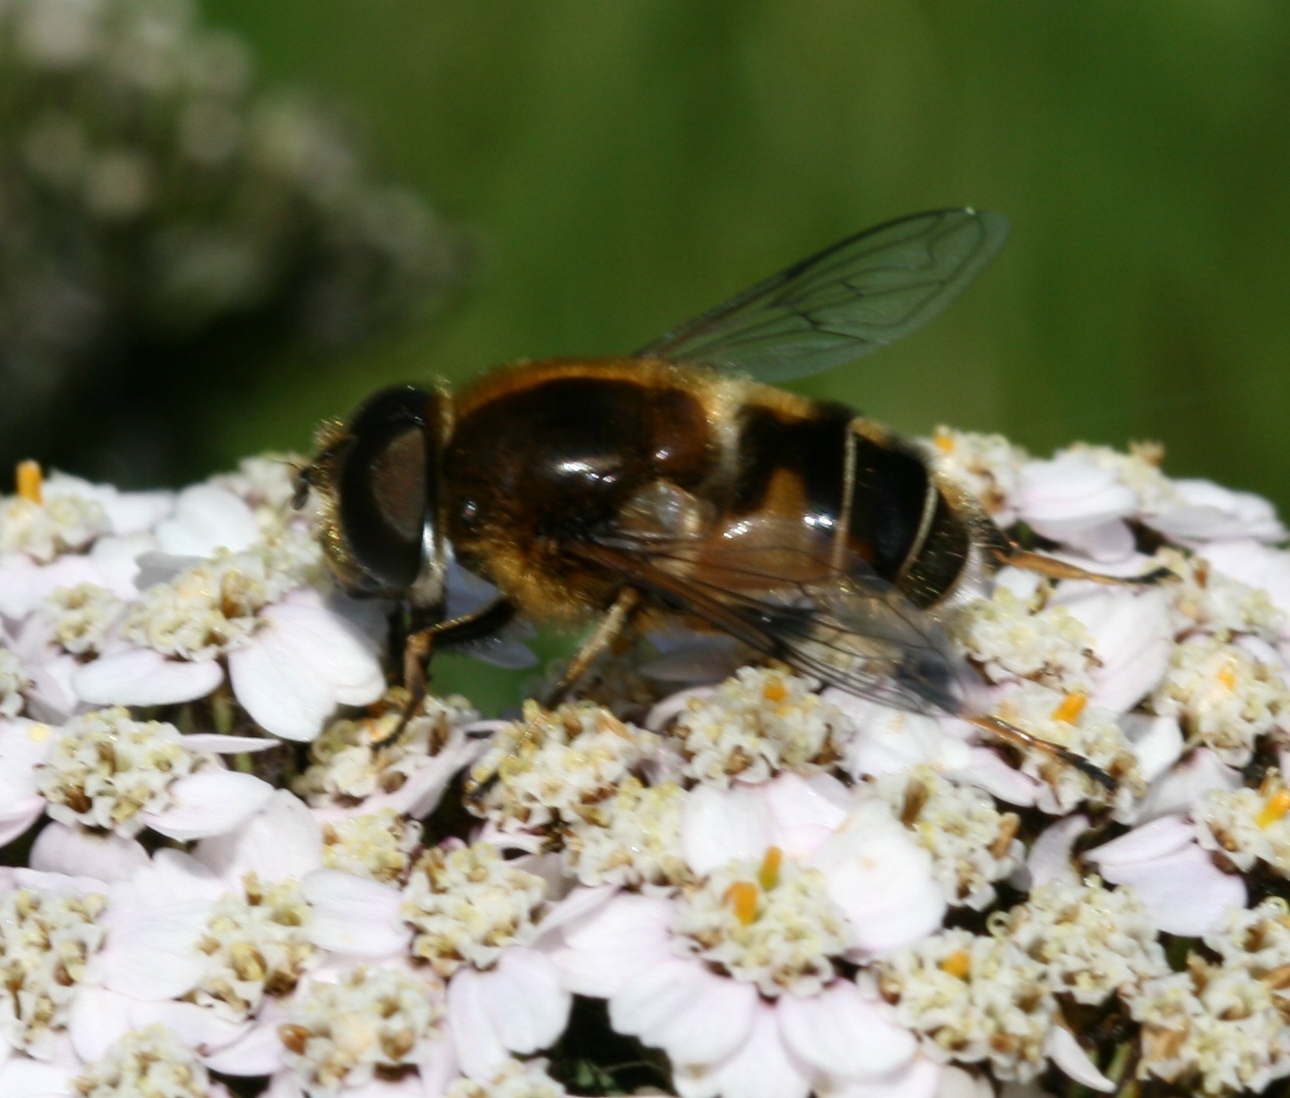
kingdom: Animalia
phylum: Arthropoda
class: Insecta
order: Diptera
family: Syrphidae
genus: Eristalis
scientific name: Eristalis rupium
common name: Hover fly
